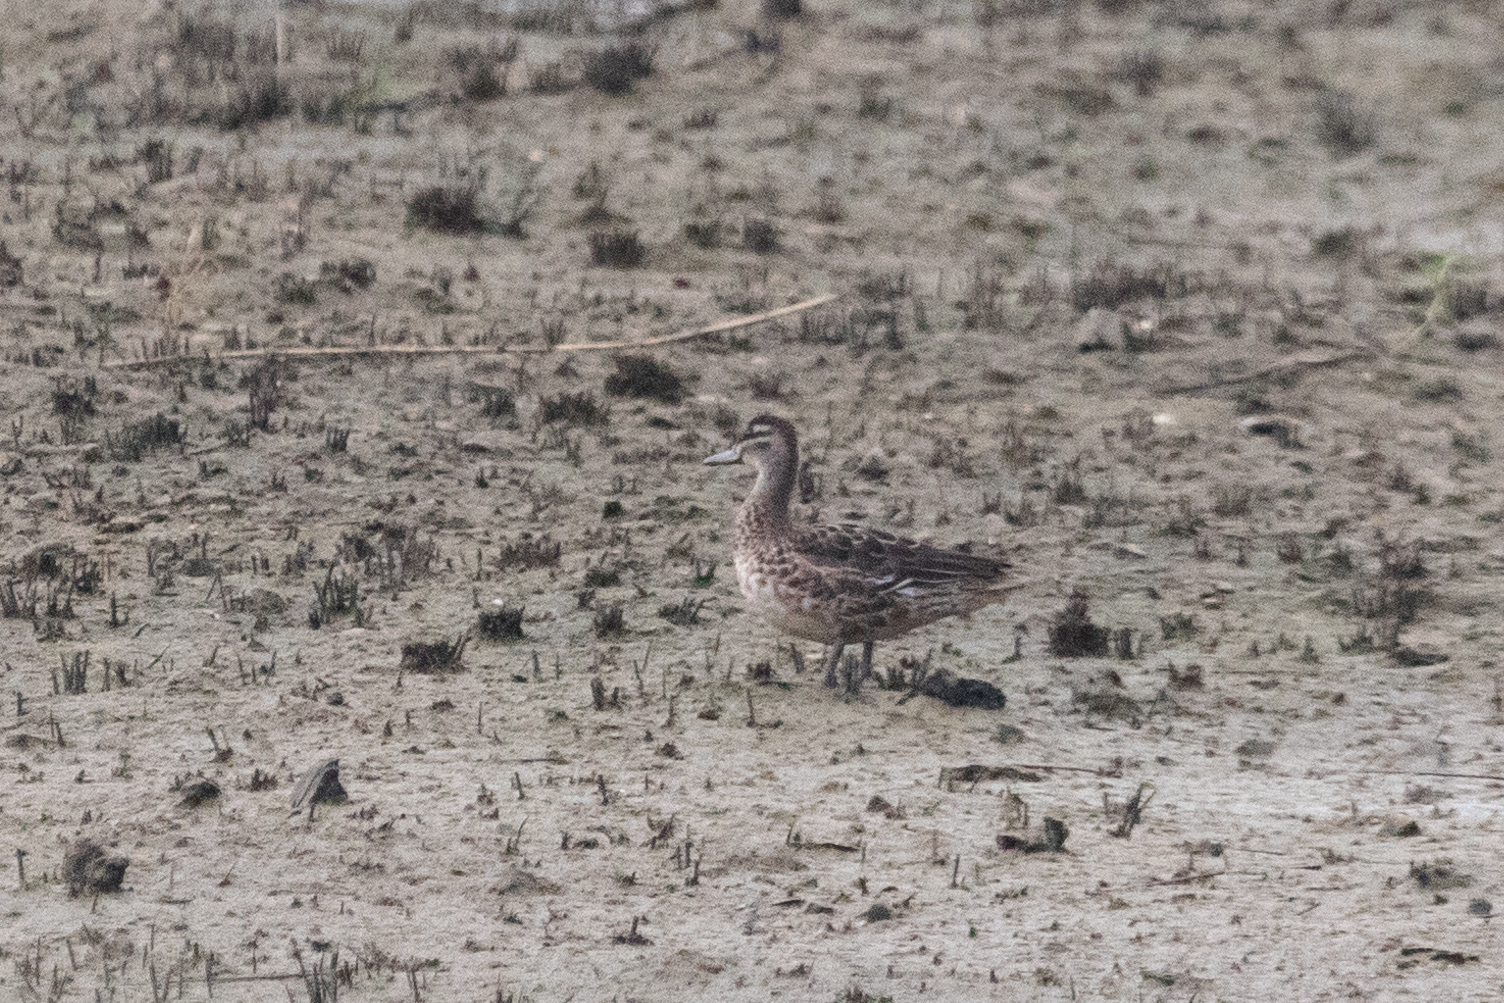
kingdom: Animalia
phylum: Chordata
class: Aves
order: Anseriformes
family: Anatidae
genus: Spatula
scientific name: Spatula querquedula
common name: Garganey
